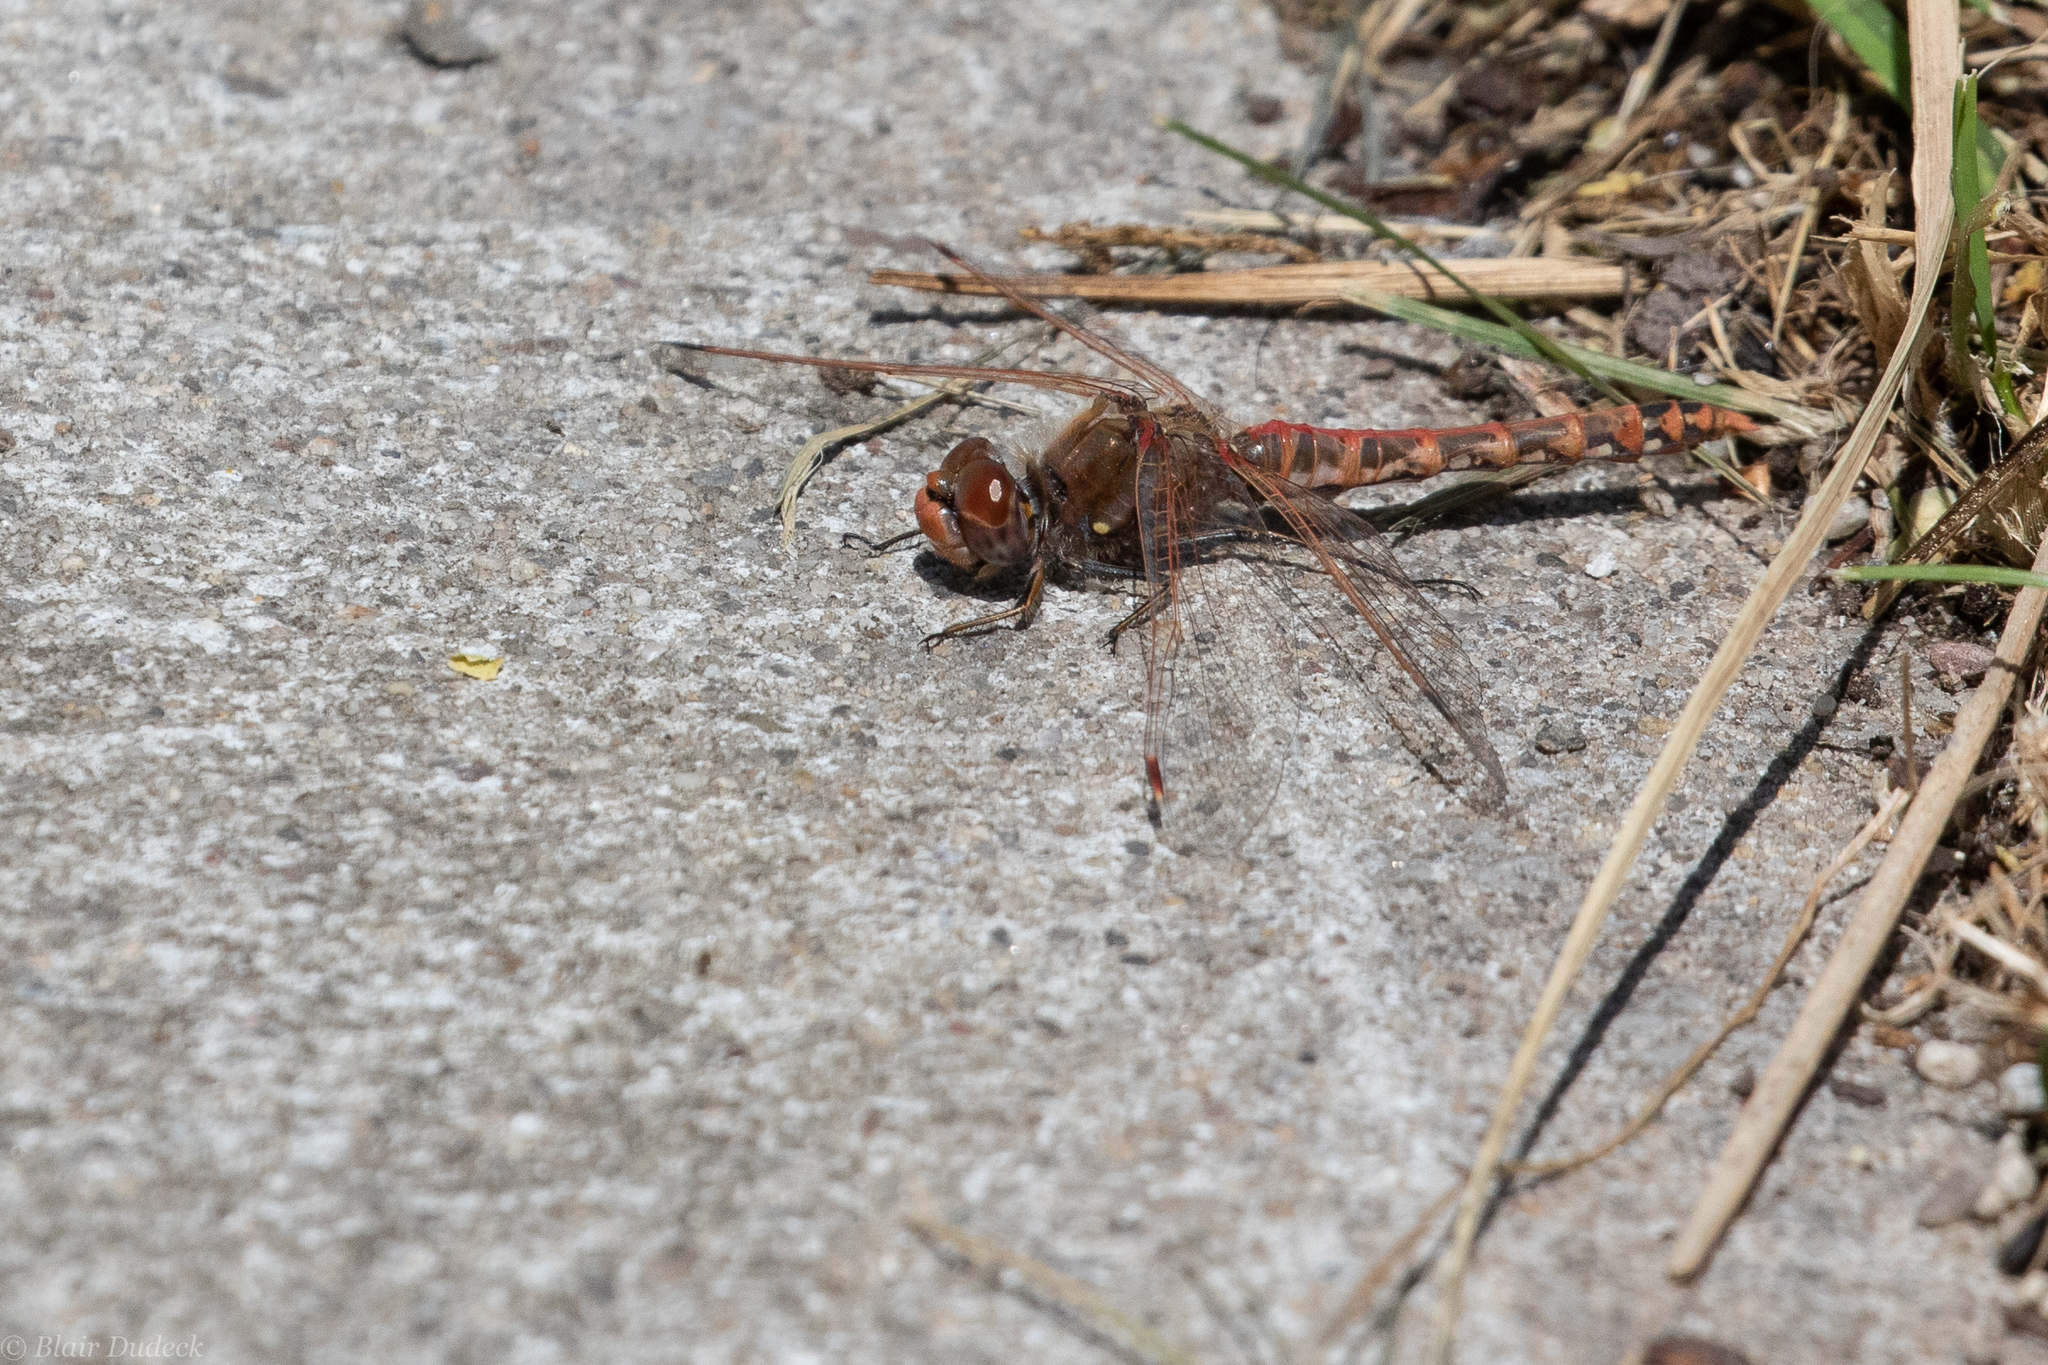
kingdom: Animalia
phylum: Arthropoda
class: Insecta
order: Odonata
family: Libellulidae
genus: Sympetrum
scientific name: Sympetrum corruptum
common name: Variegated meadowhawk
